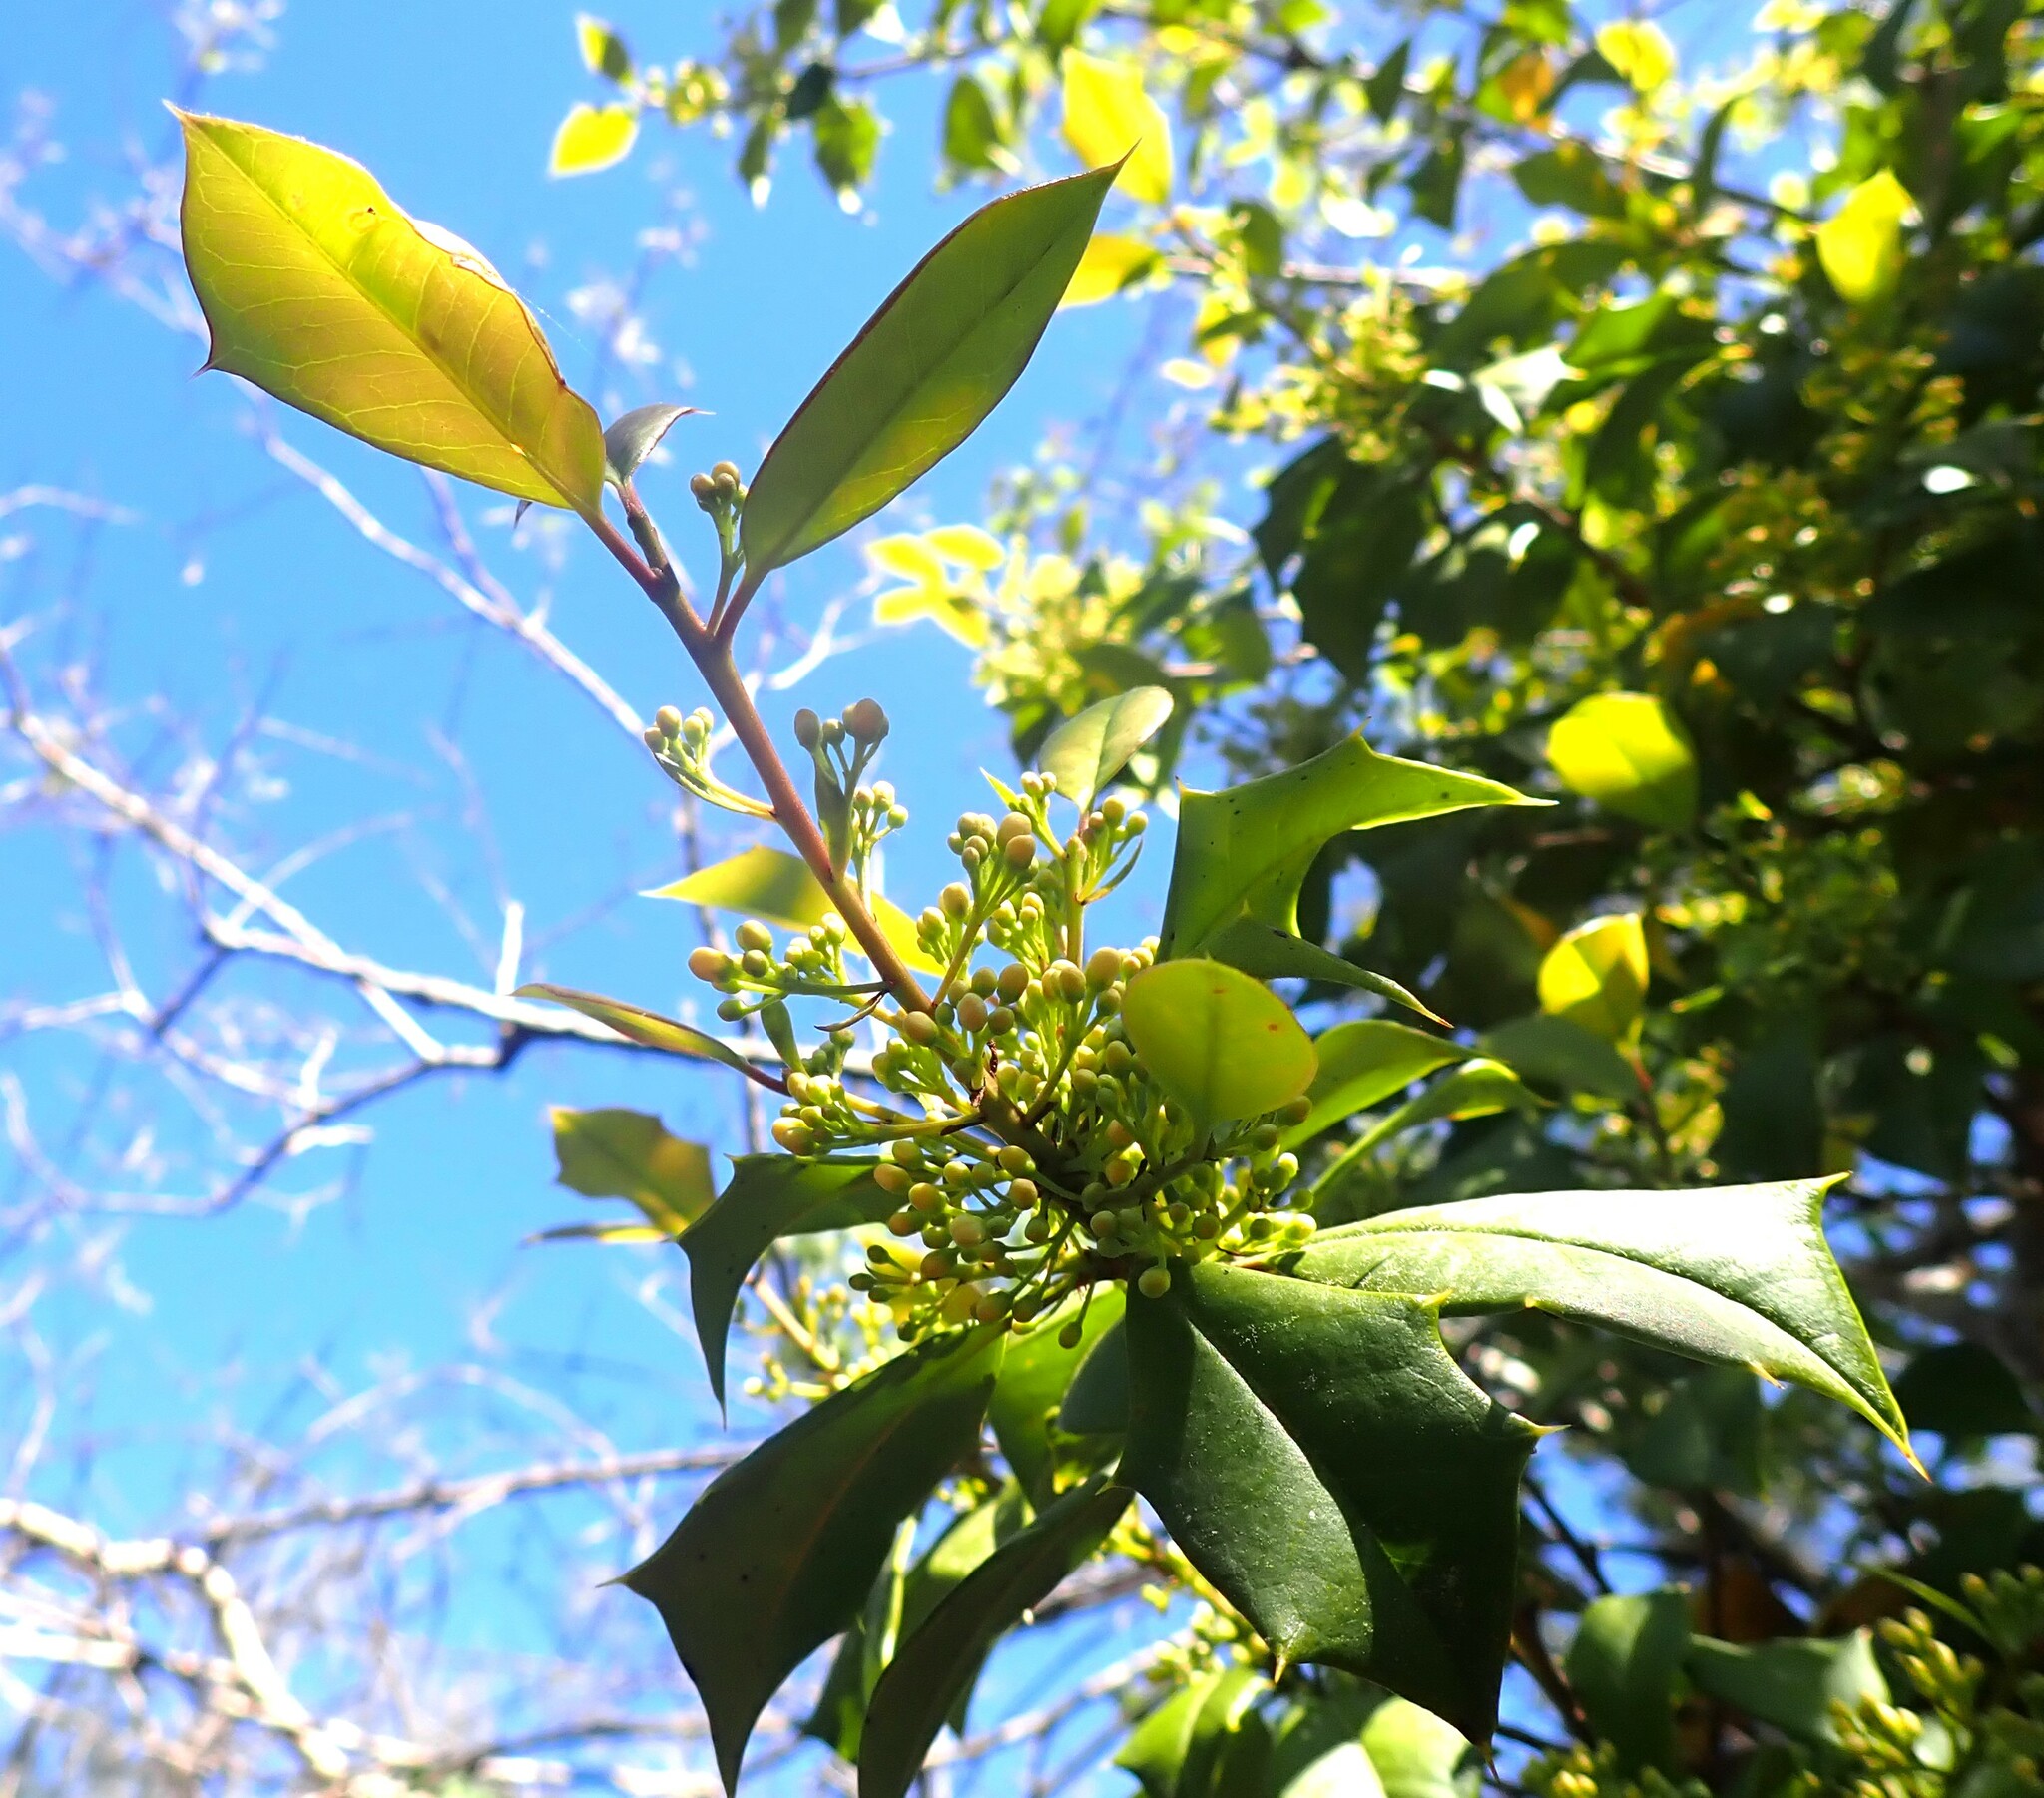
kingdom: Plantae
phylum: Tracheophyta
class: Magnoliopsida
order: Aquifoliales
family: Aquifoliaceae
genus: Ilex
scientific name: Ilex opaca
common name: American holly
